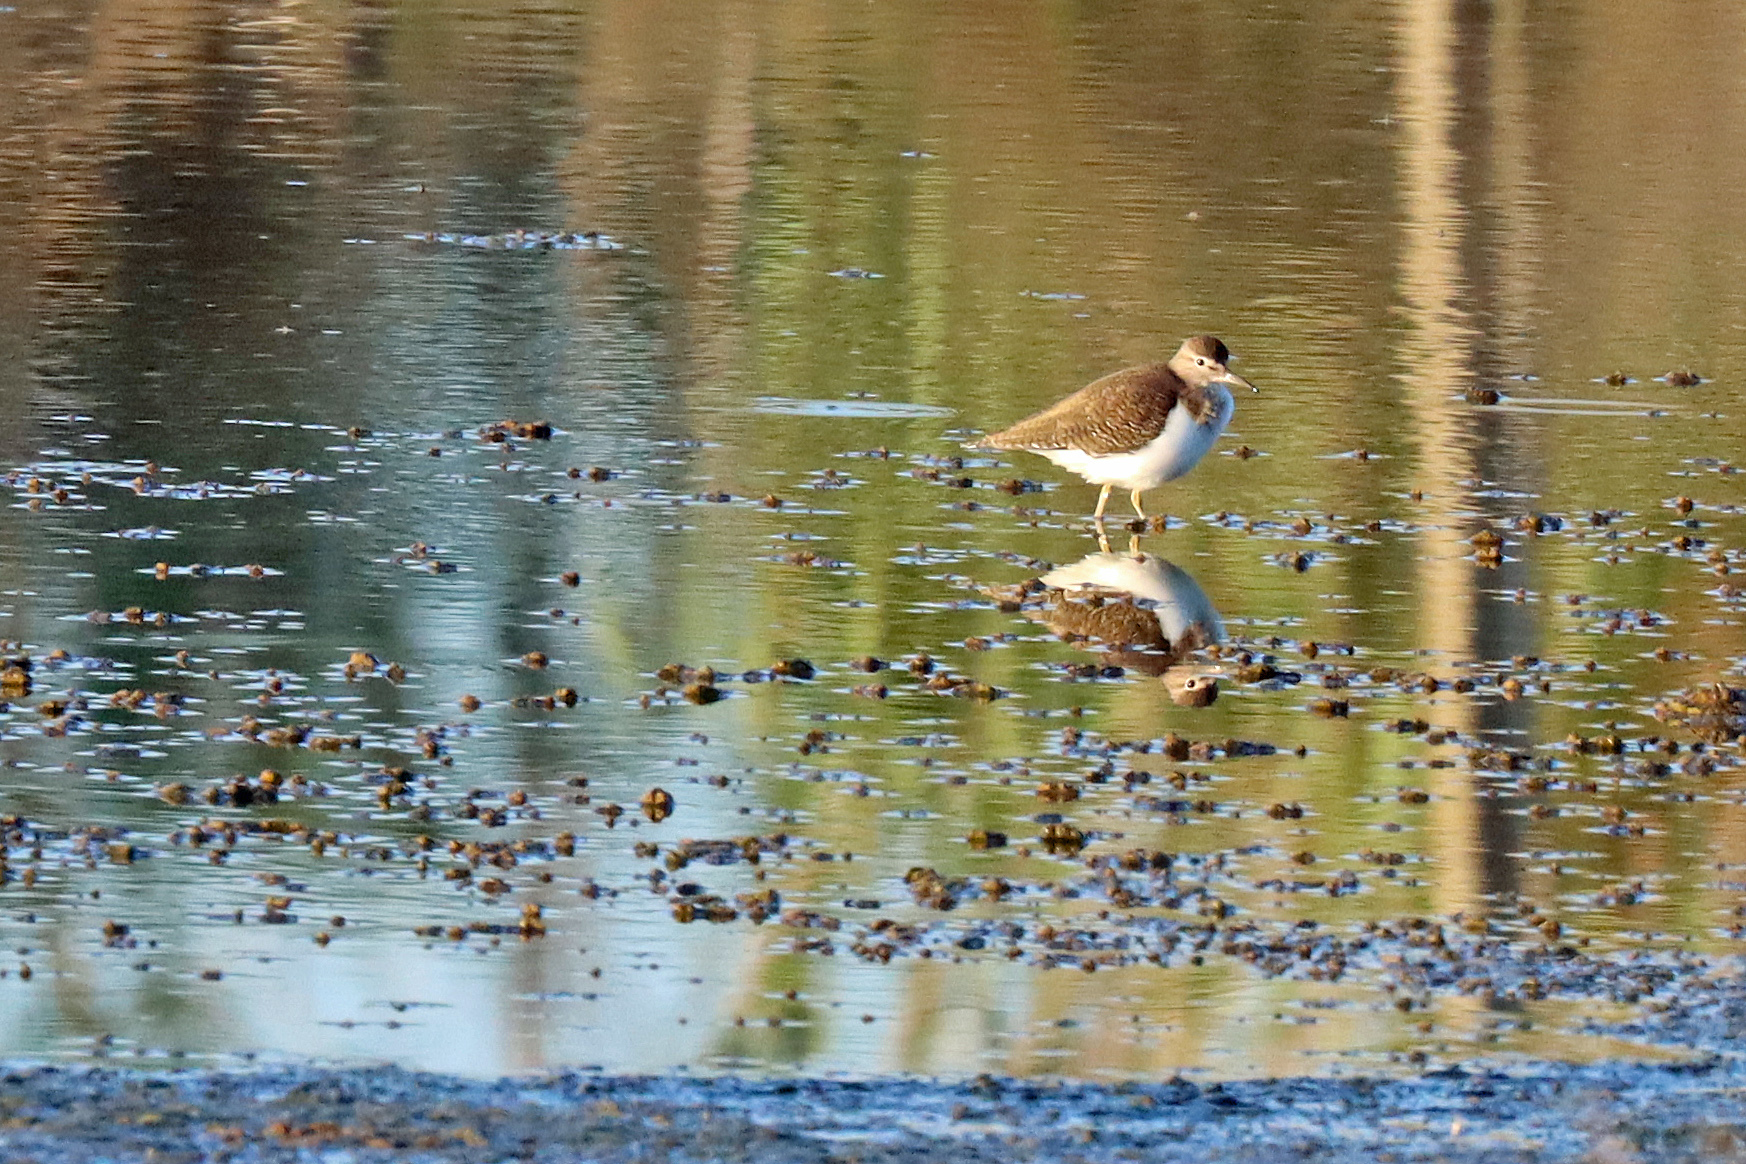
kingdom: Animalia
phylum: Chordata
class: Aves
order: Charadriiformes
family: Scolopacidae
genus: Actitis
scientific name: Actitis hypoleucos
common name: Common sandpiper
